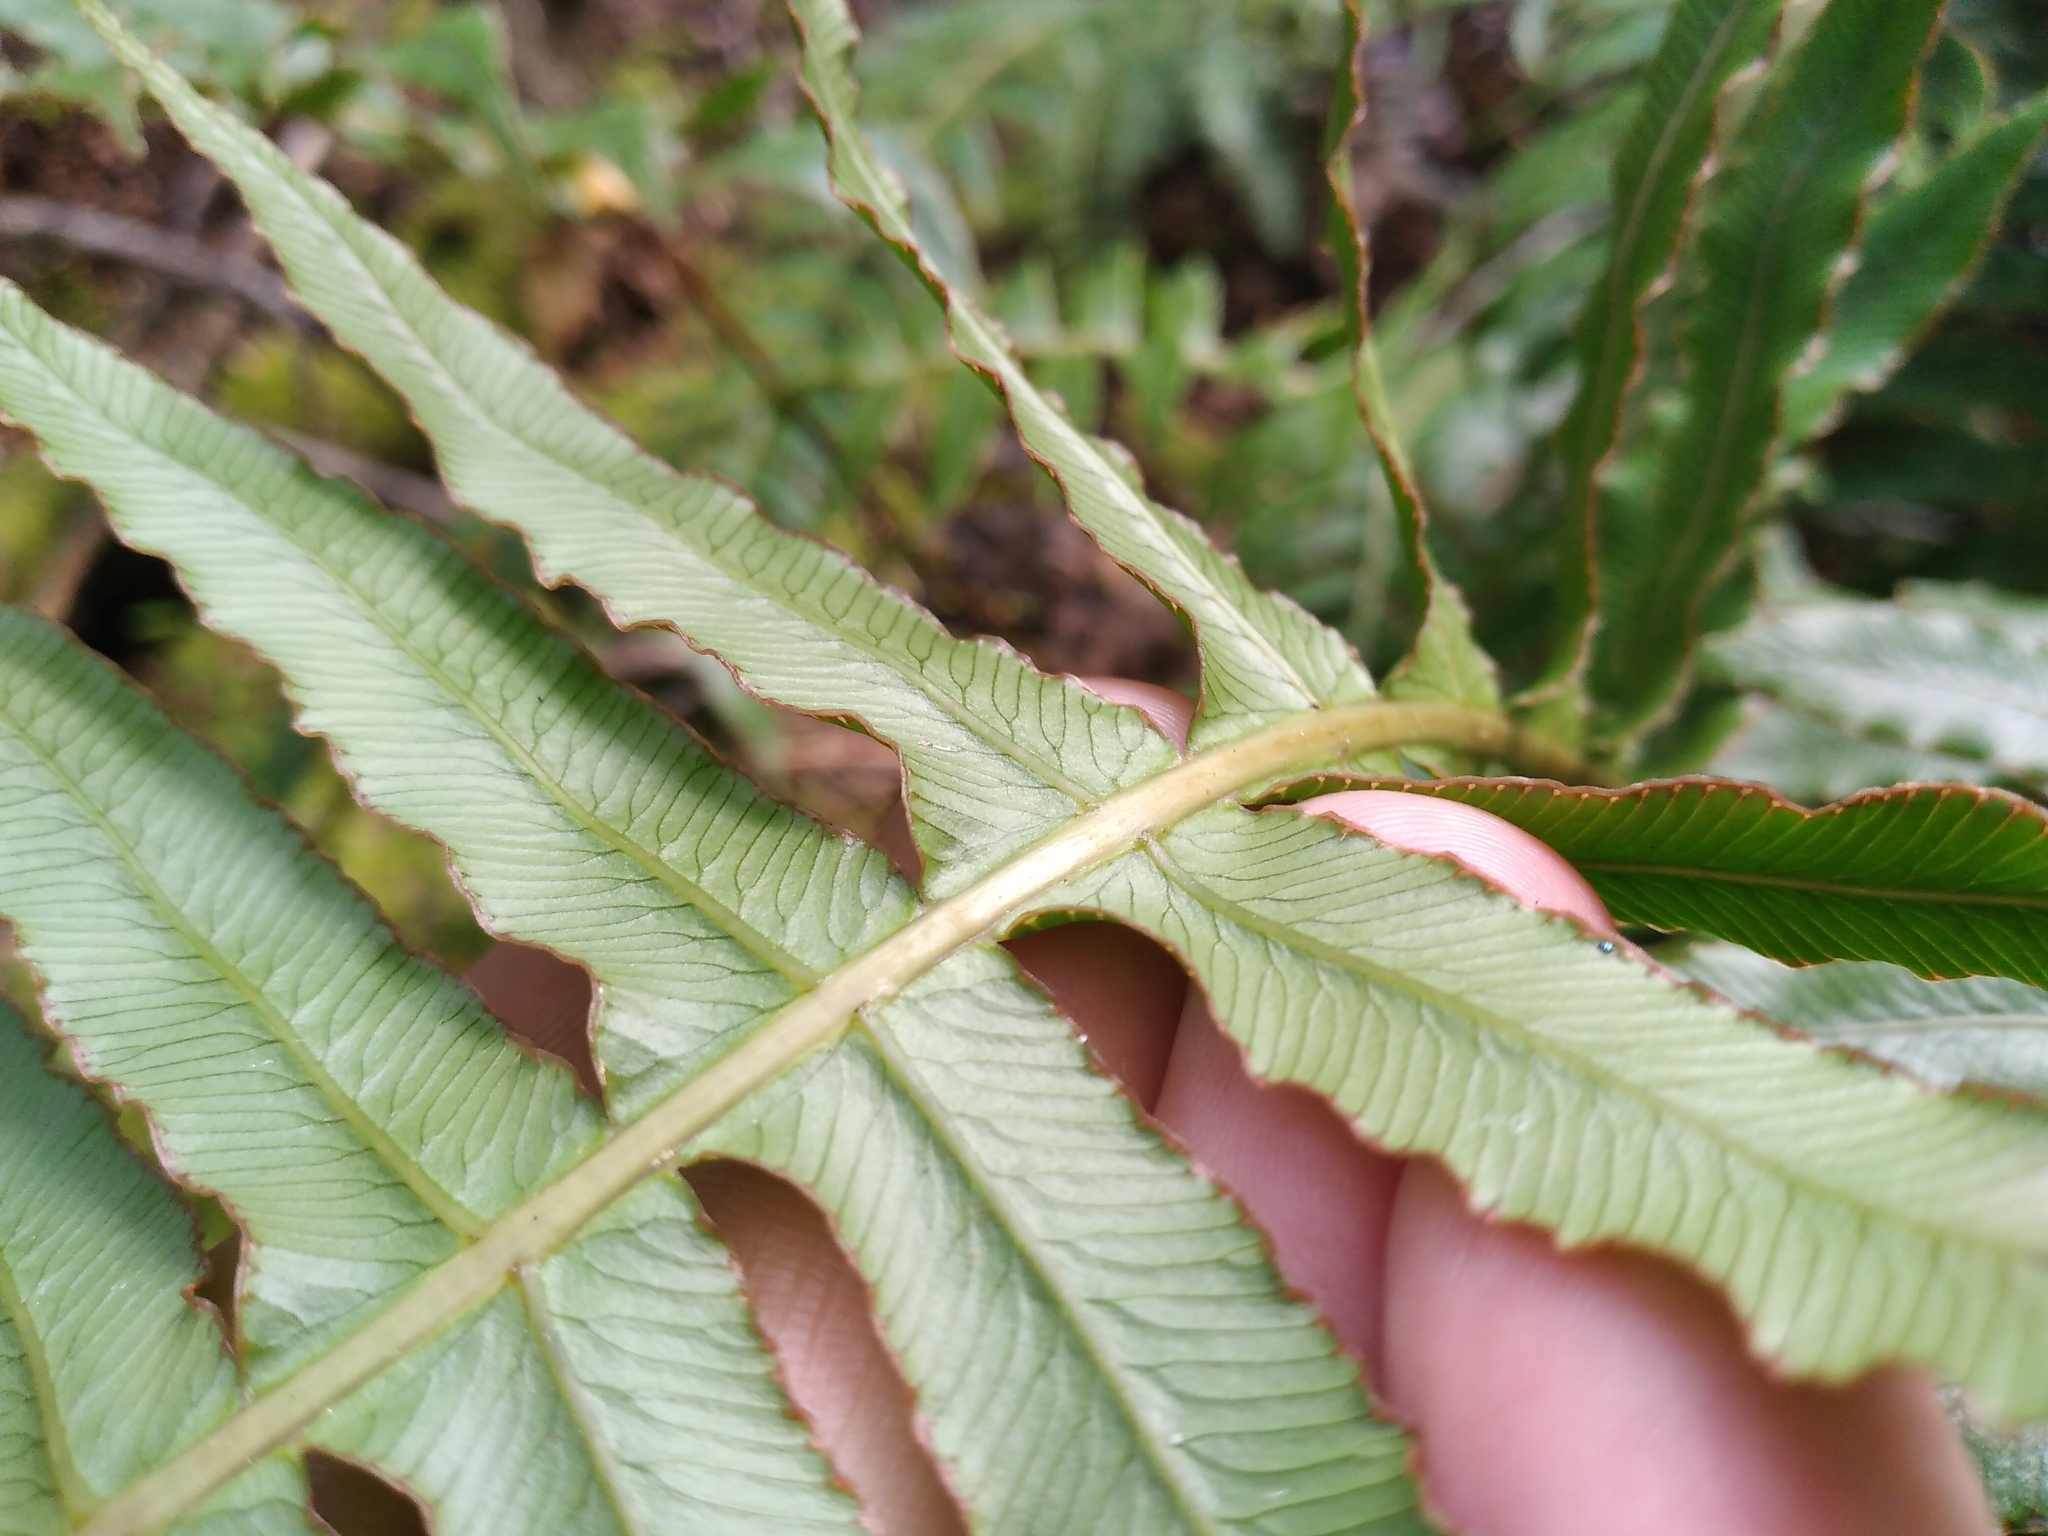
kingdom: Plantae
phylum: Tracheophyta
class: Polypodiopsida
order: Polypodiales
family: Blechnaceae
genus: Cranfillia
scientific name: Cranfillia deltoides
